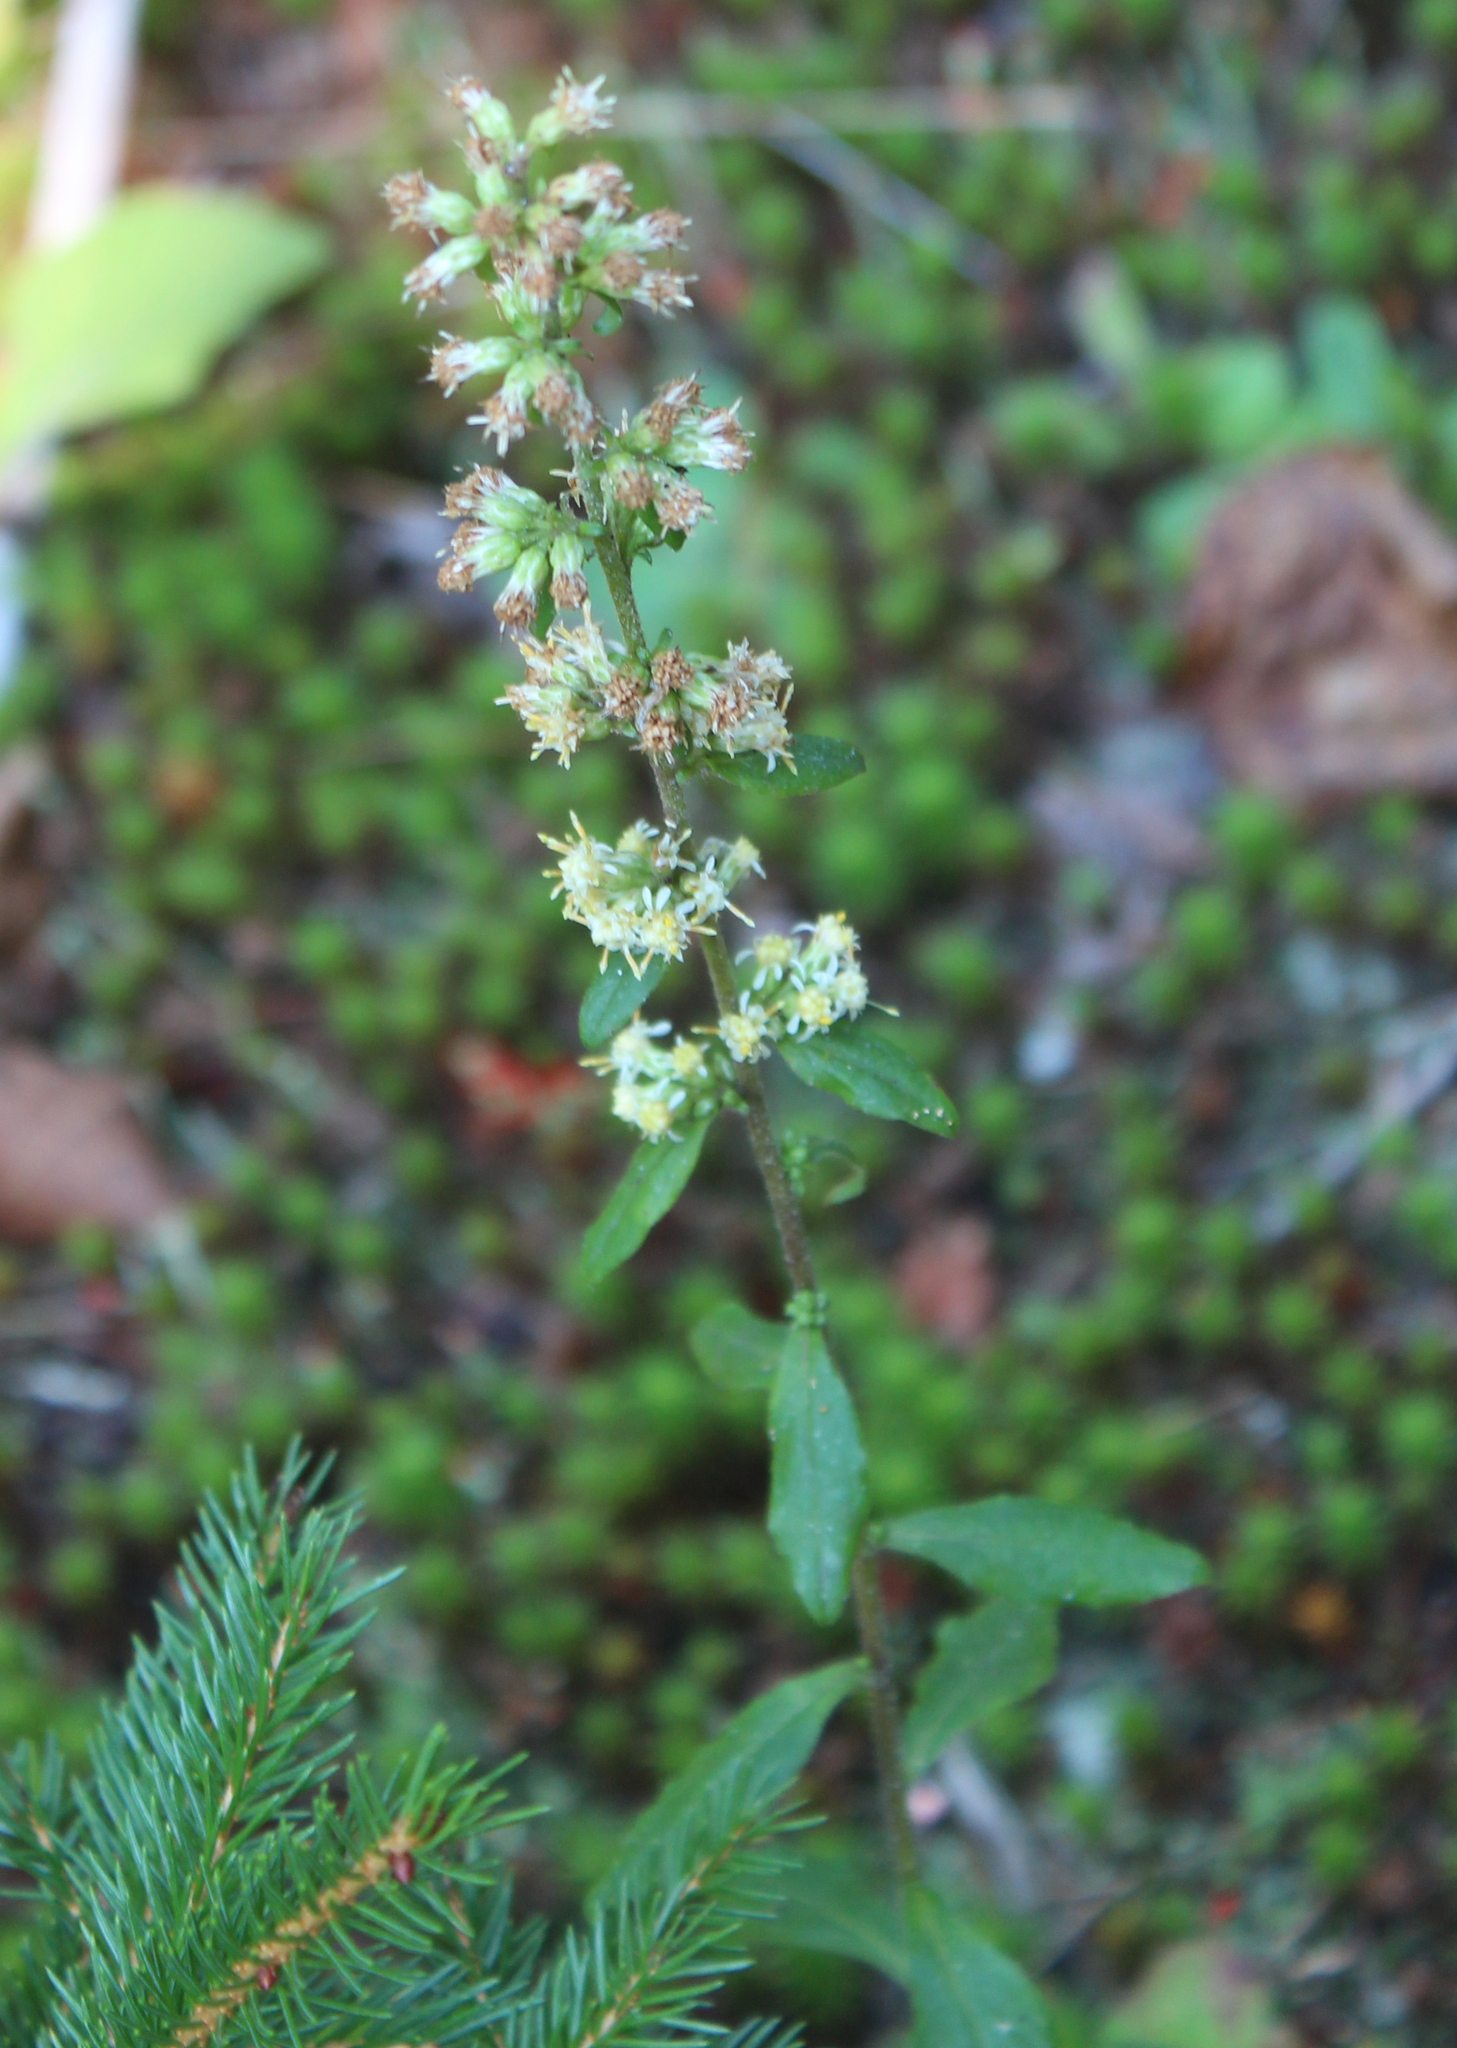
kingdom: Plantae
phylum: Tracheophyta
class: Magnoliopsida
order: Asterales
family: Asteraceae
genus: Solidago
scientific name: Solidago bicolor
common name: Silverrod
